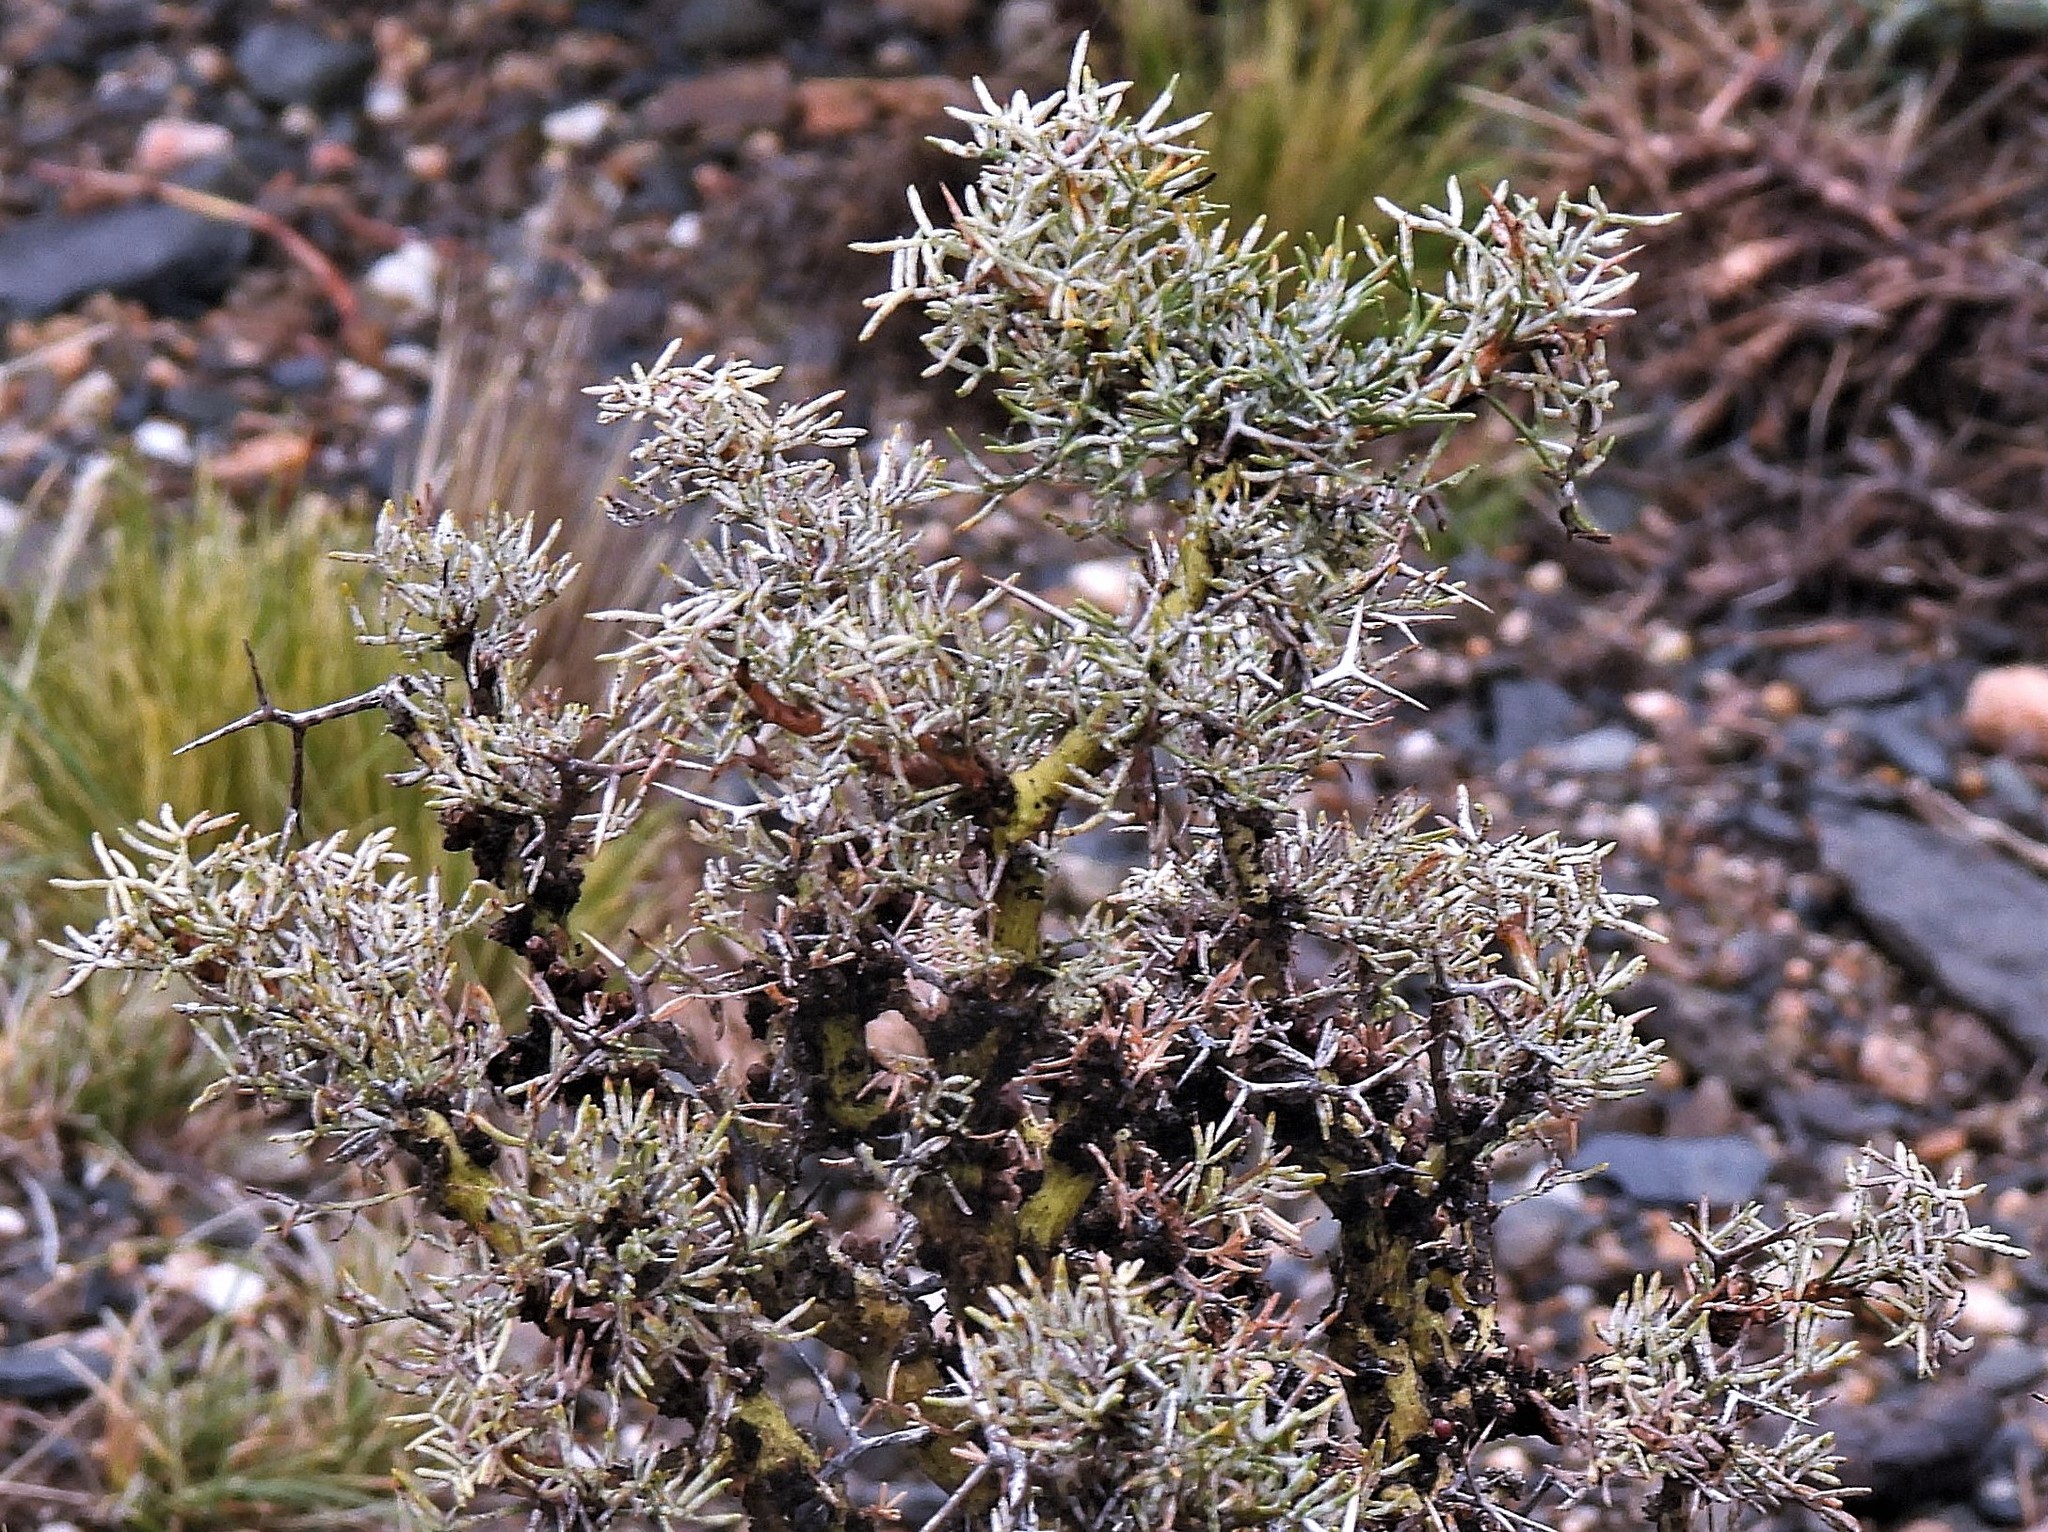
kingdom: Plantae
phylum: Tracheophyta
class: Magnoliopsida
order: Fabales
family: Fabaceae
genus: Adesmia
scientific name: Adesmia pinifolia
